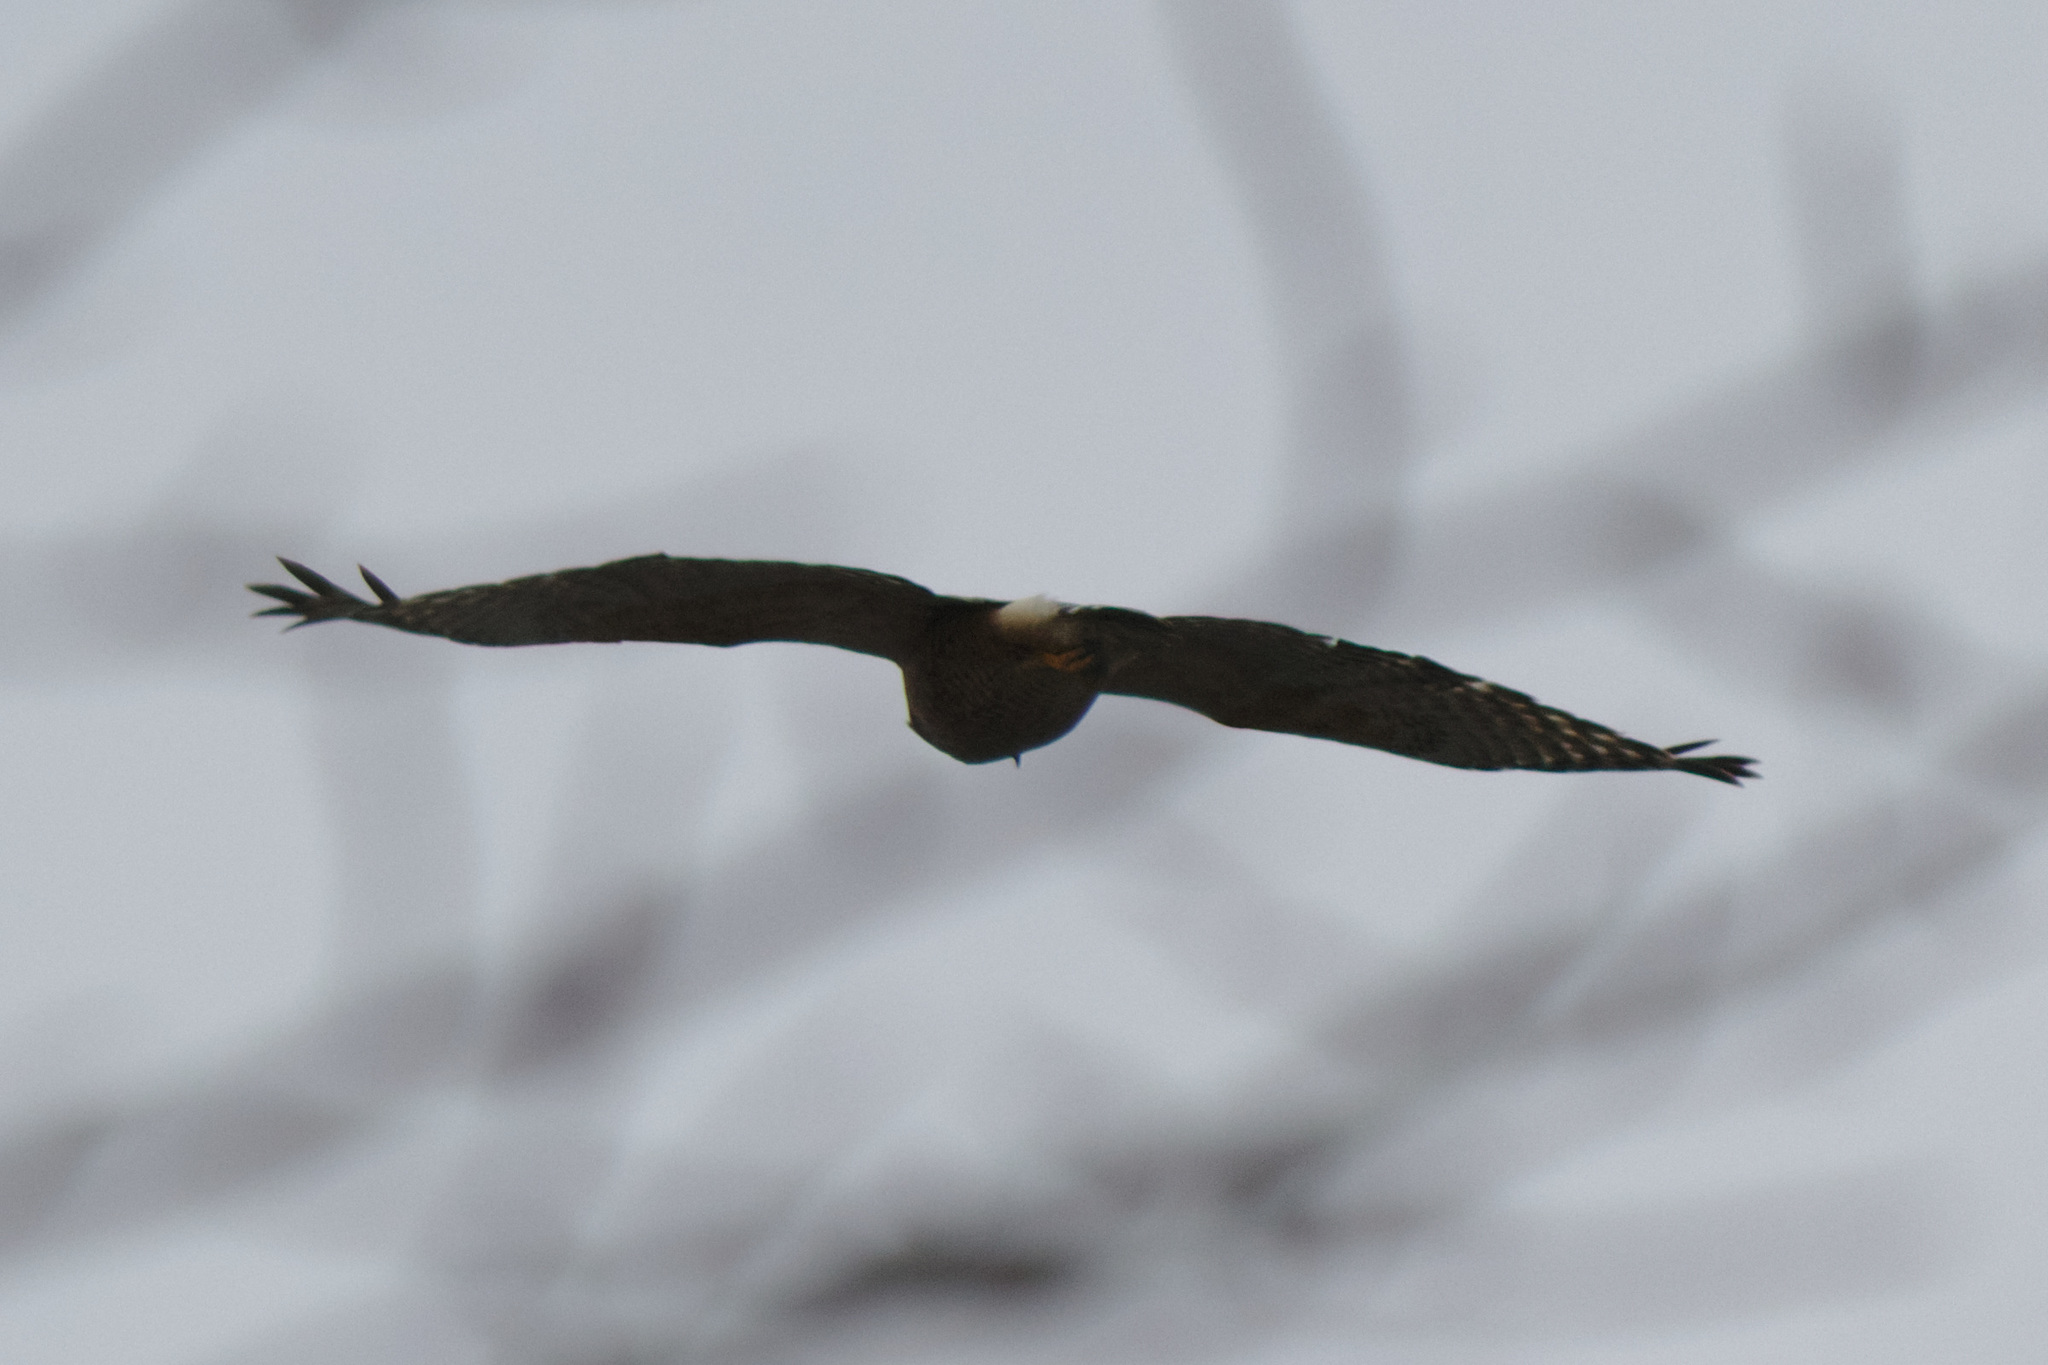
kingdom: Animalia
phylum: Chordata
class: Aves
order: Accipitriformes
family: Accipitridae
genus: Buteo
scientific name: Buteo lineatus
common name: Red-shouldered hawk
